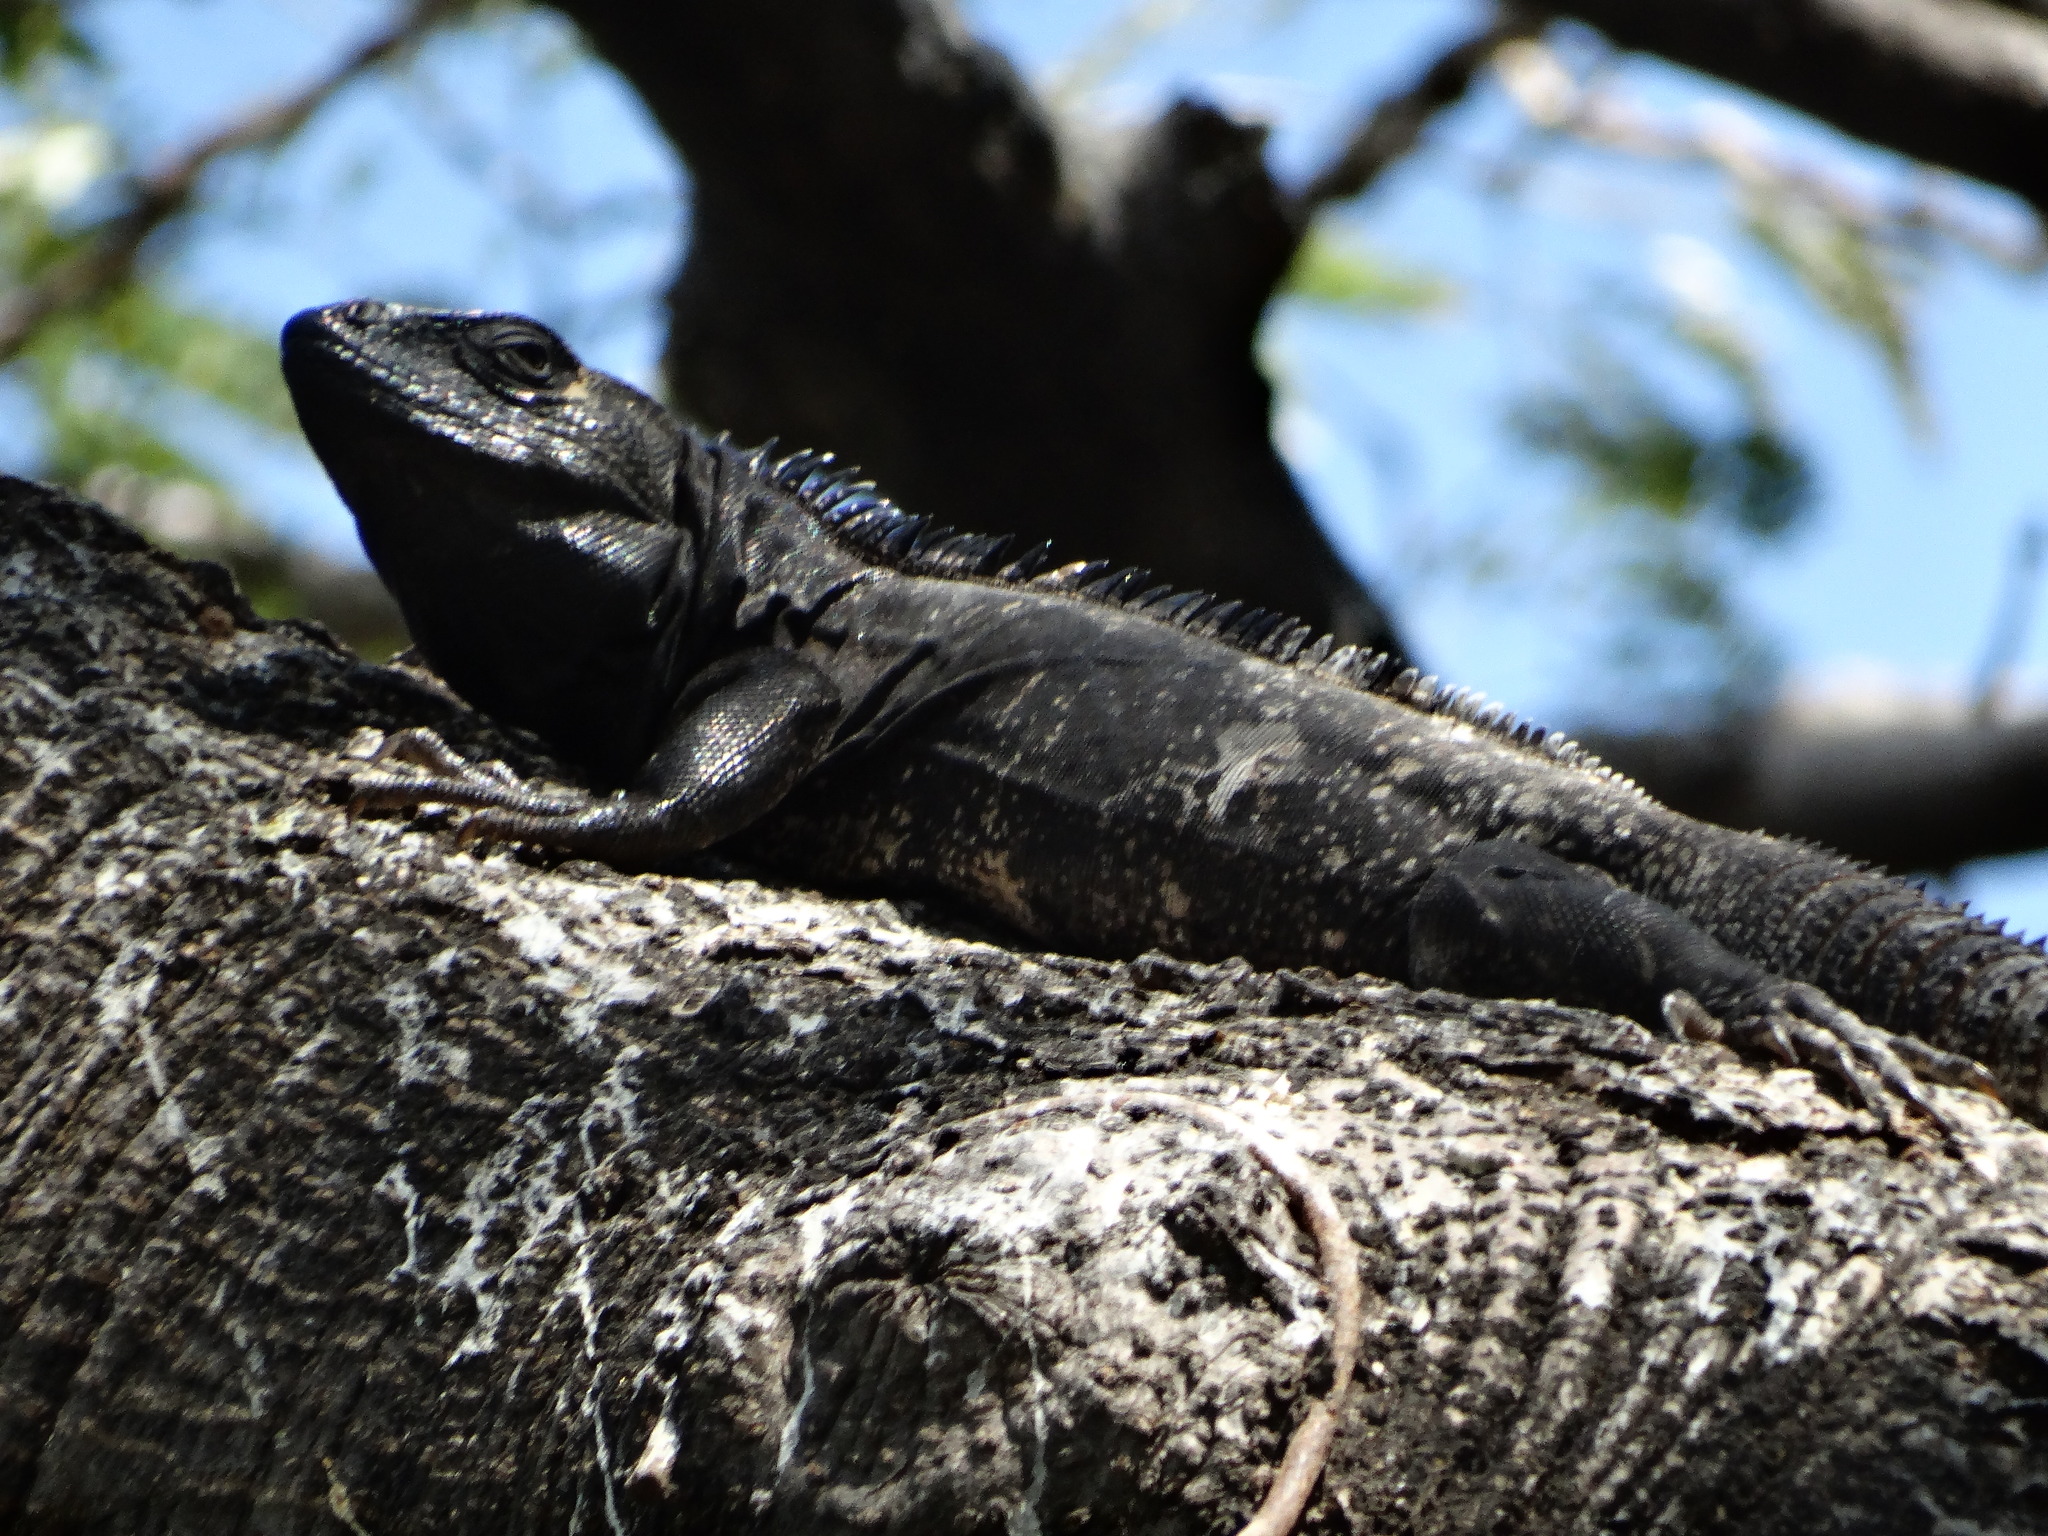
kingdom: Animalia
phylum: Chordata
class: Squamata
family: Iguanidae
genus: Ctenosaura
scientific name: Ctenosaura pectinata
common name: Guerreran spiny-tailed iguana
